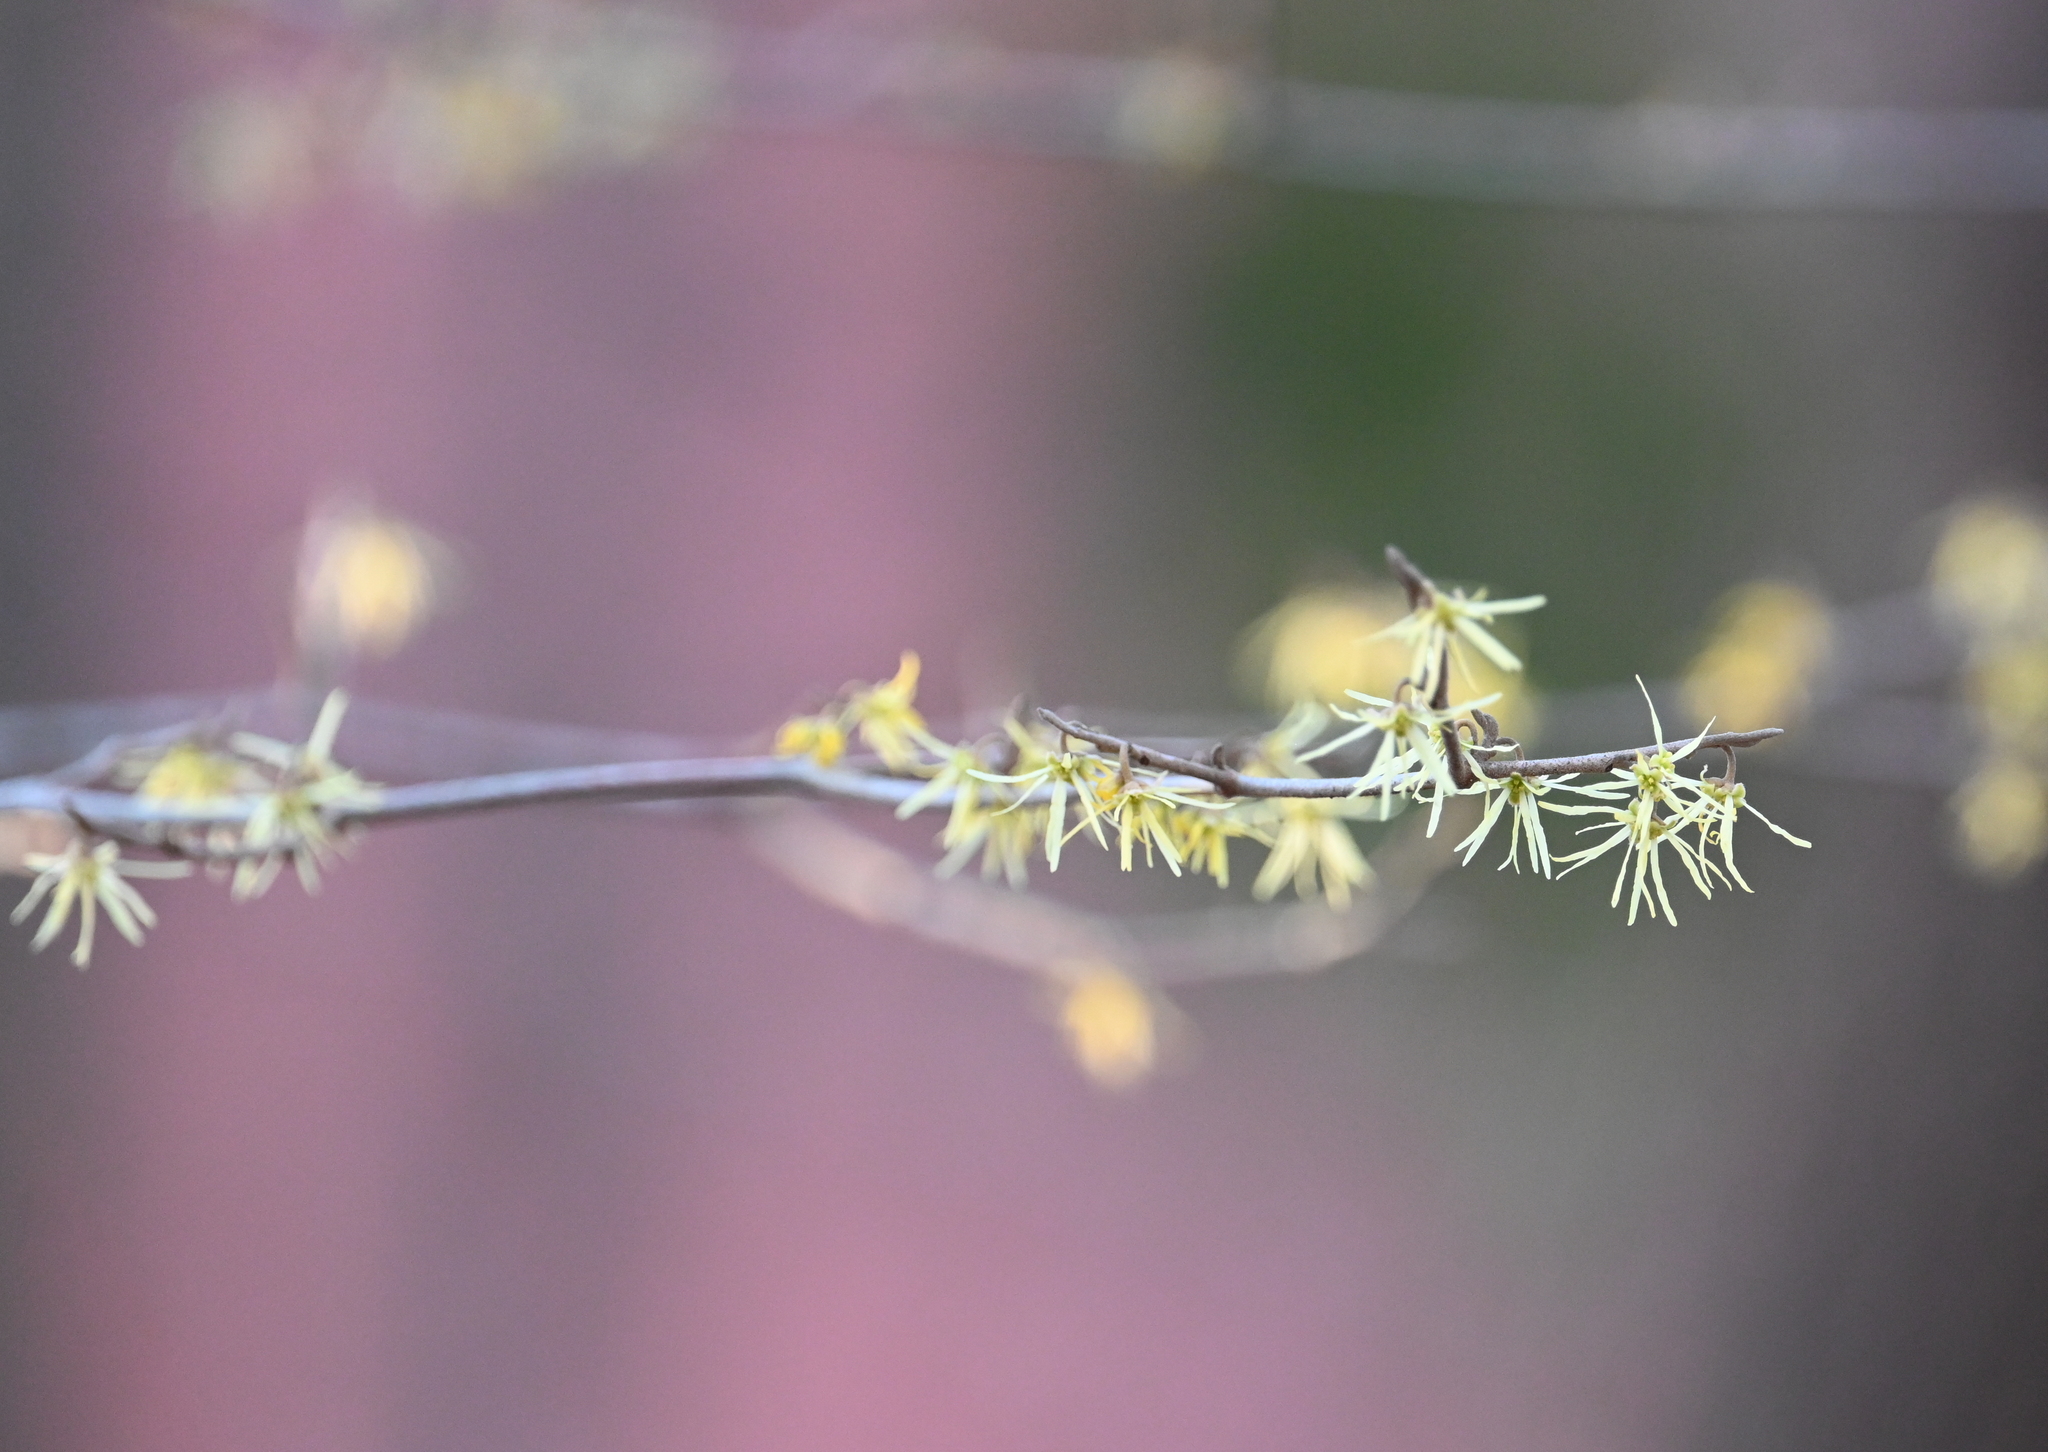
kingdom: Plantae
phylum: Tracheophyta
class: Magnoliopsida
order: Saxifragales
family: Hamamelidaceae
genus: Hamamelis
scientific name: Hamamelis virginiana
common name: Witch-hazel
